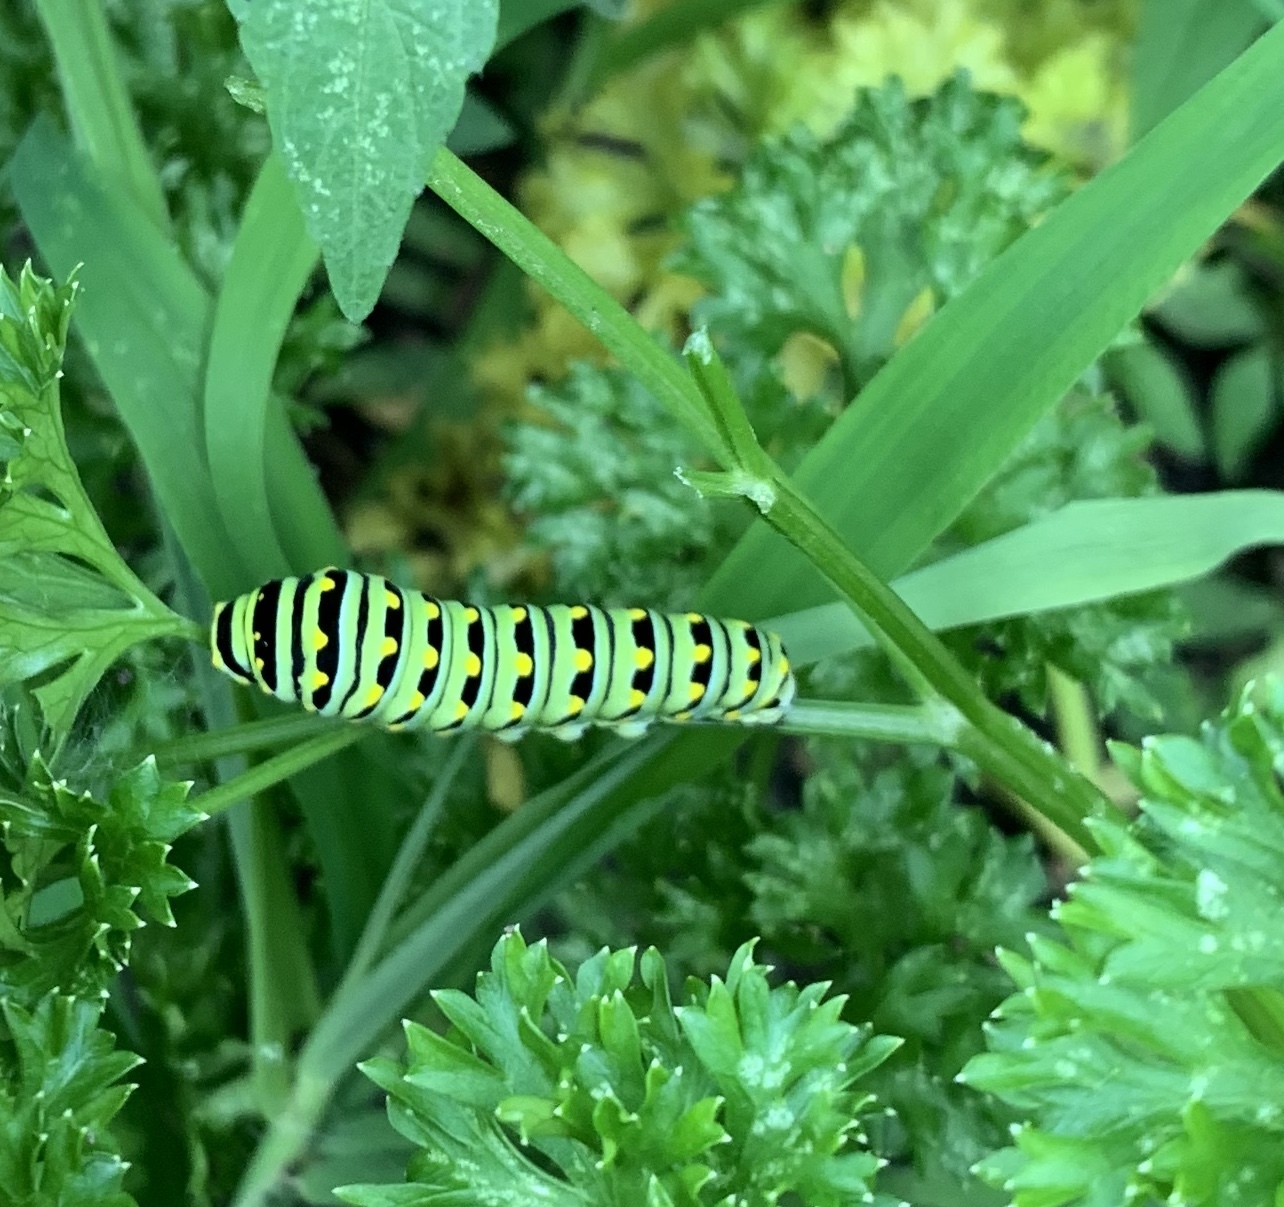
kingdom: Animalia
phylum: Arthropoda
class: Insecta
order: Lepidoptera
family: Papilionidae
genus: Papilio
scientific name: Papilio polyxenes
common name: Black swallowtail
